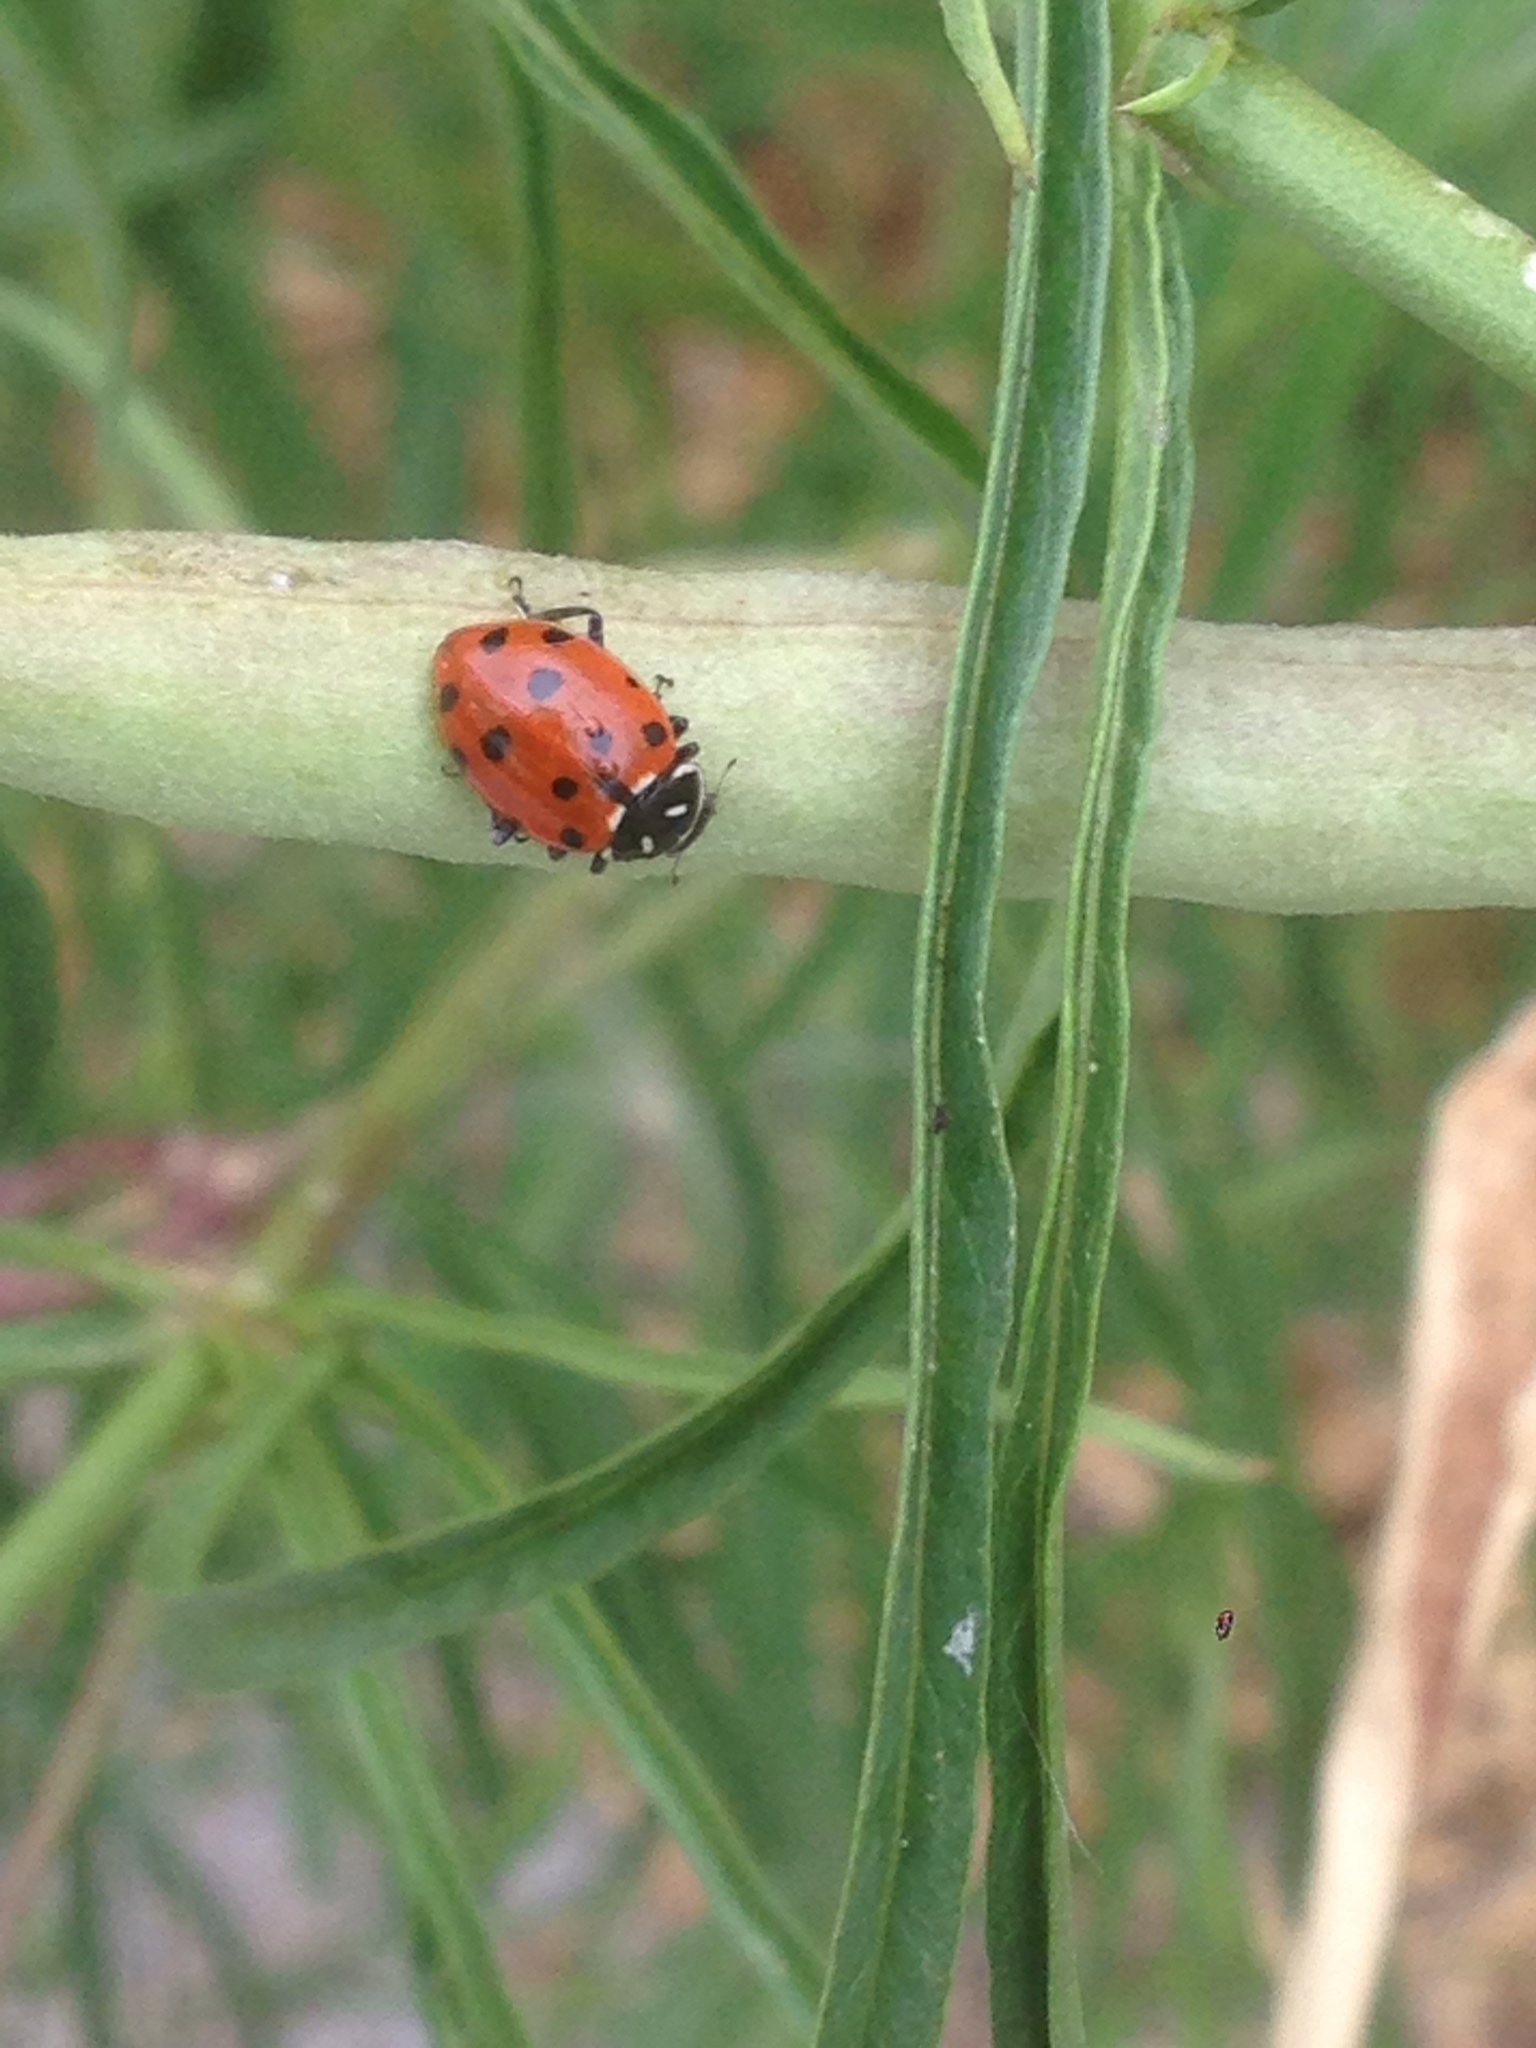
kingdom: Animalia
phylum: Arthropoda
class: Insecta
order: Coleoptera
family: Coccinellidae
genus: Hippodamia
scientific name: Hippodamia convergens
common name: Convergent lady beetle
